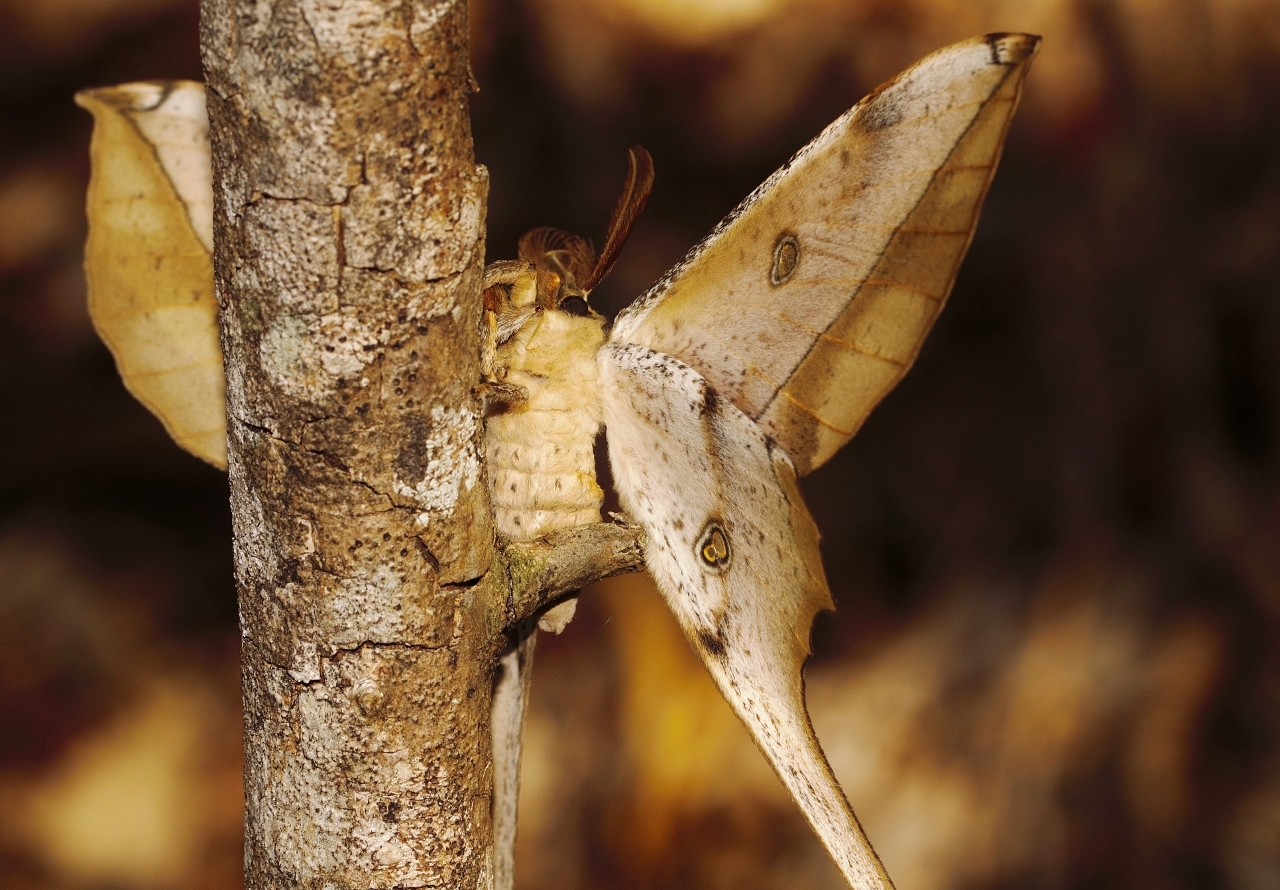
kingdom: Animalia
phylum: Arthropoda
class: Insecta
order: Lepidoptera
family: Saturniidae
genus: Antistathmoptera
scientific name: Antistathmoptera daltonae
